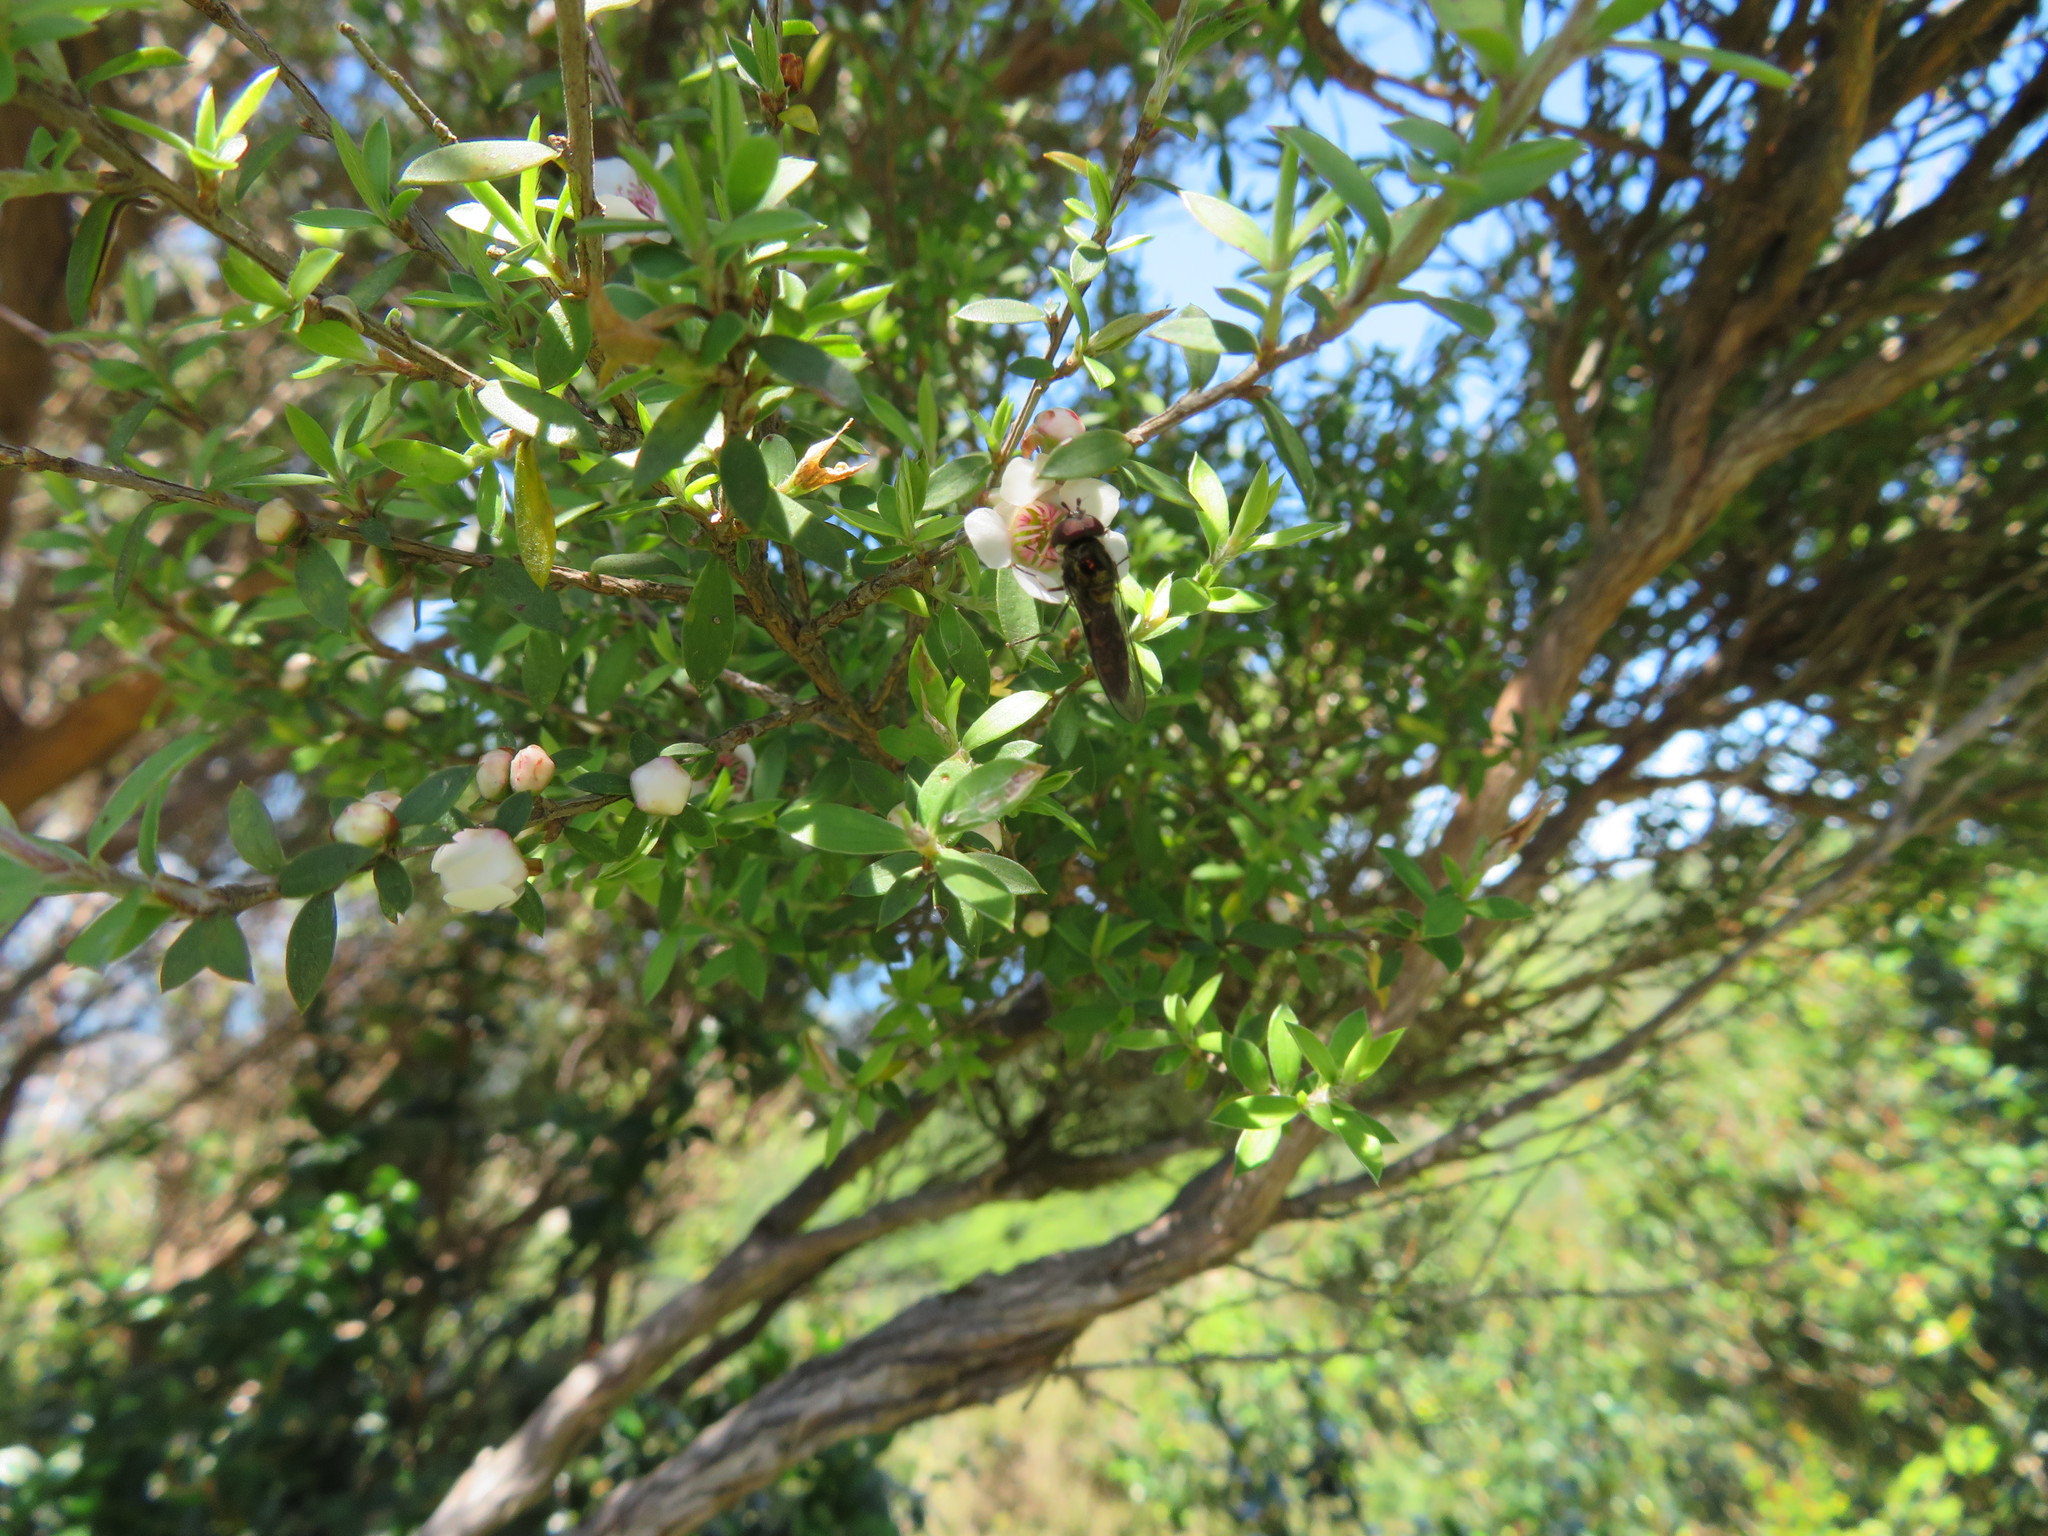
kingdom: Animalia
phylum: Arthropoda
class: Insecta
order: Diptera
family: Syrphidae
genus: Melangyna
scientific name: Melangyna novaezelandiae
